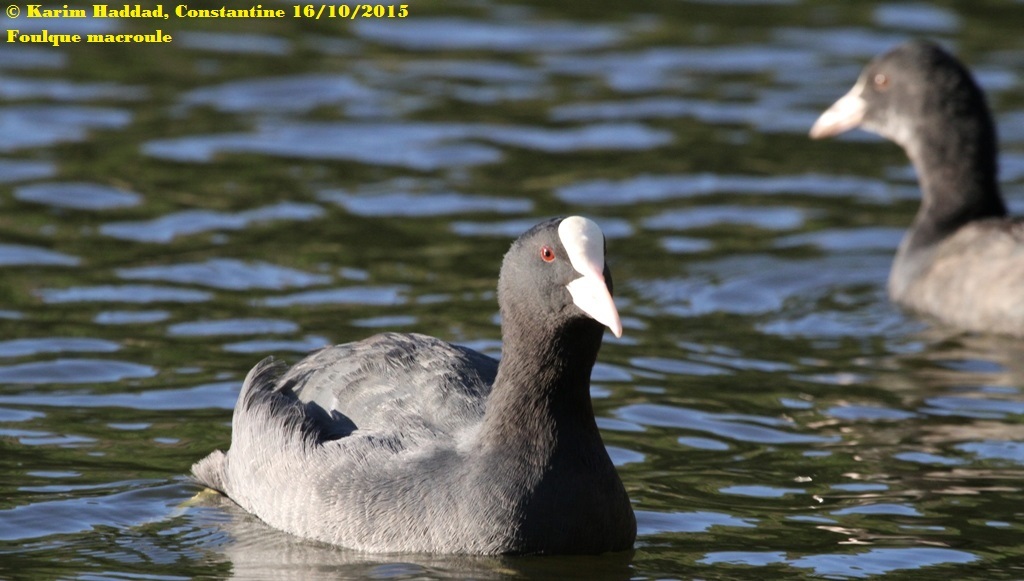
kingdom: Animalia
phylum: Chordata
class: Aves
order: Gruiformes
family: Rallidae
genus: Fulica
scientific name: Fulica atra
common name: Eurasian coot
